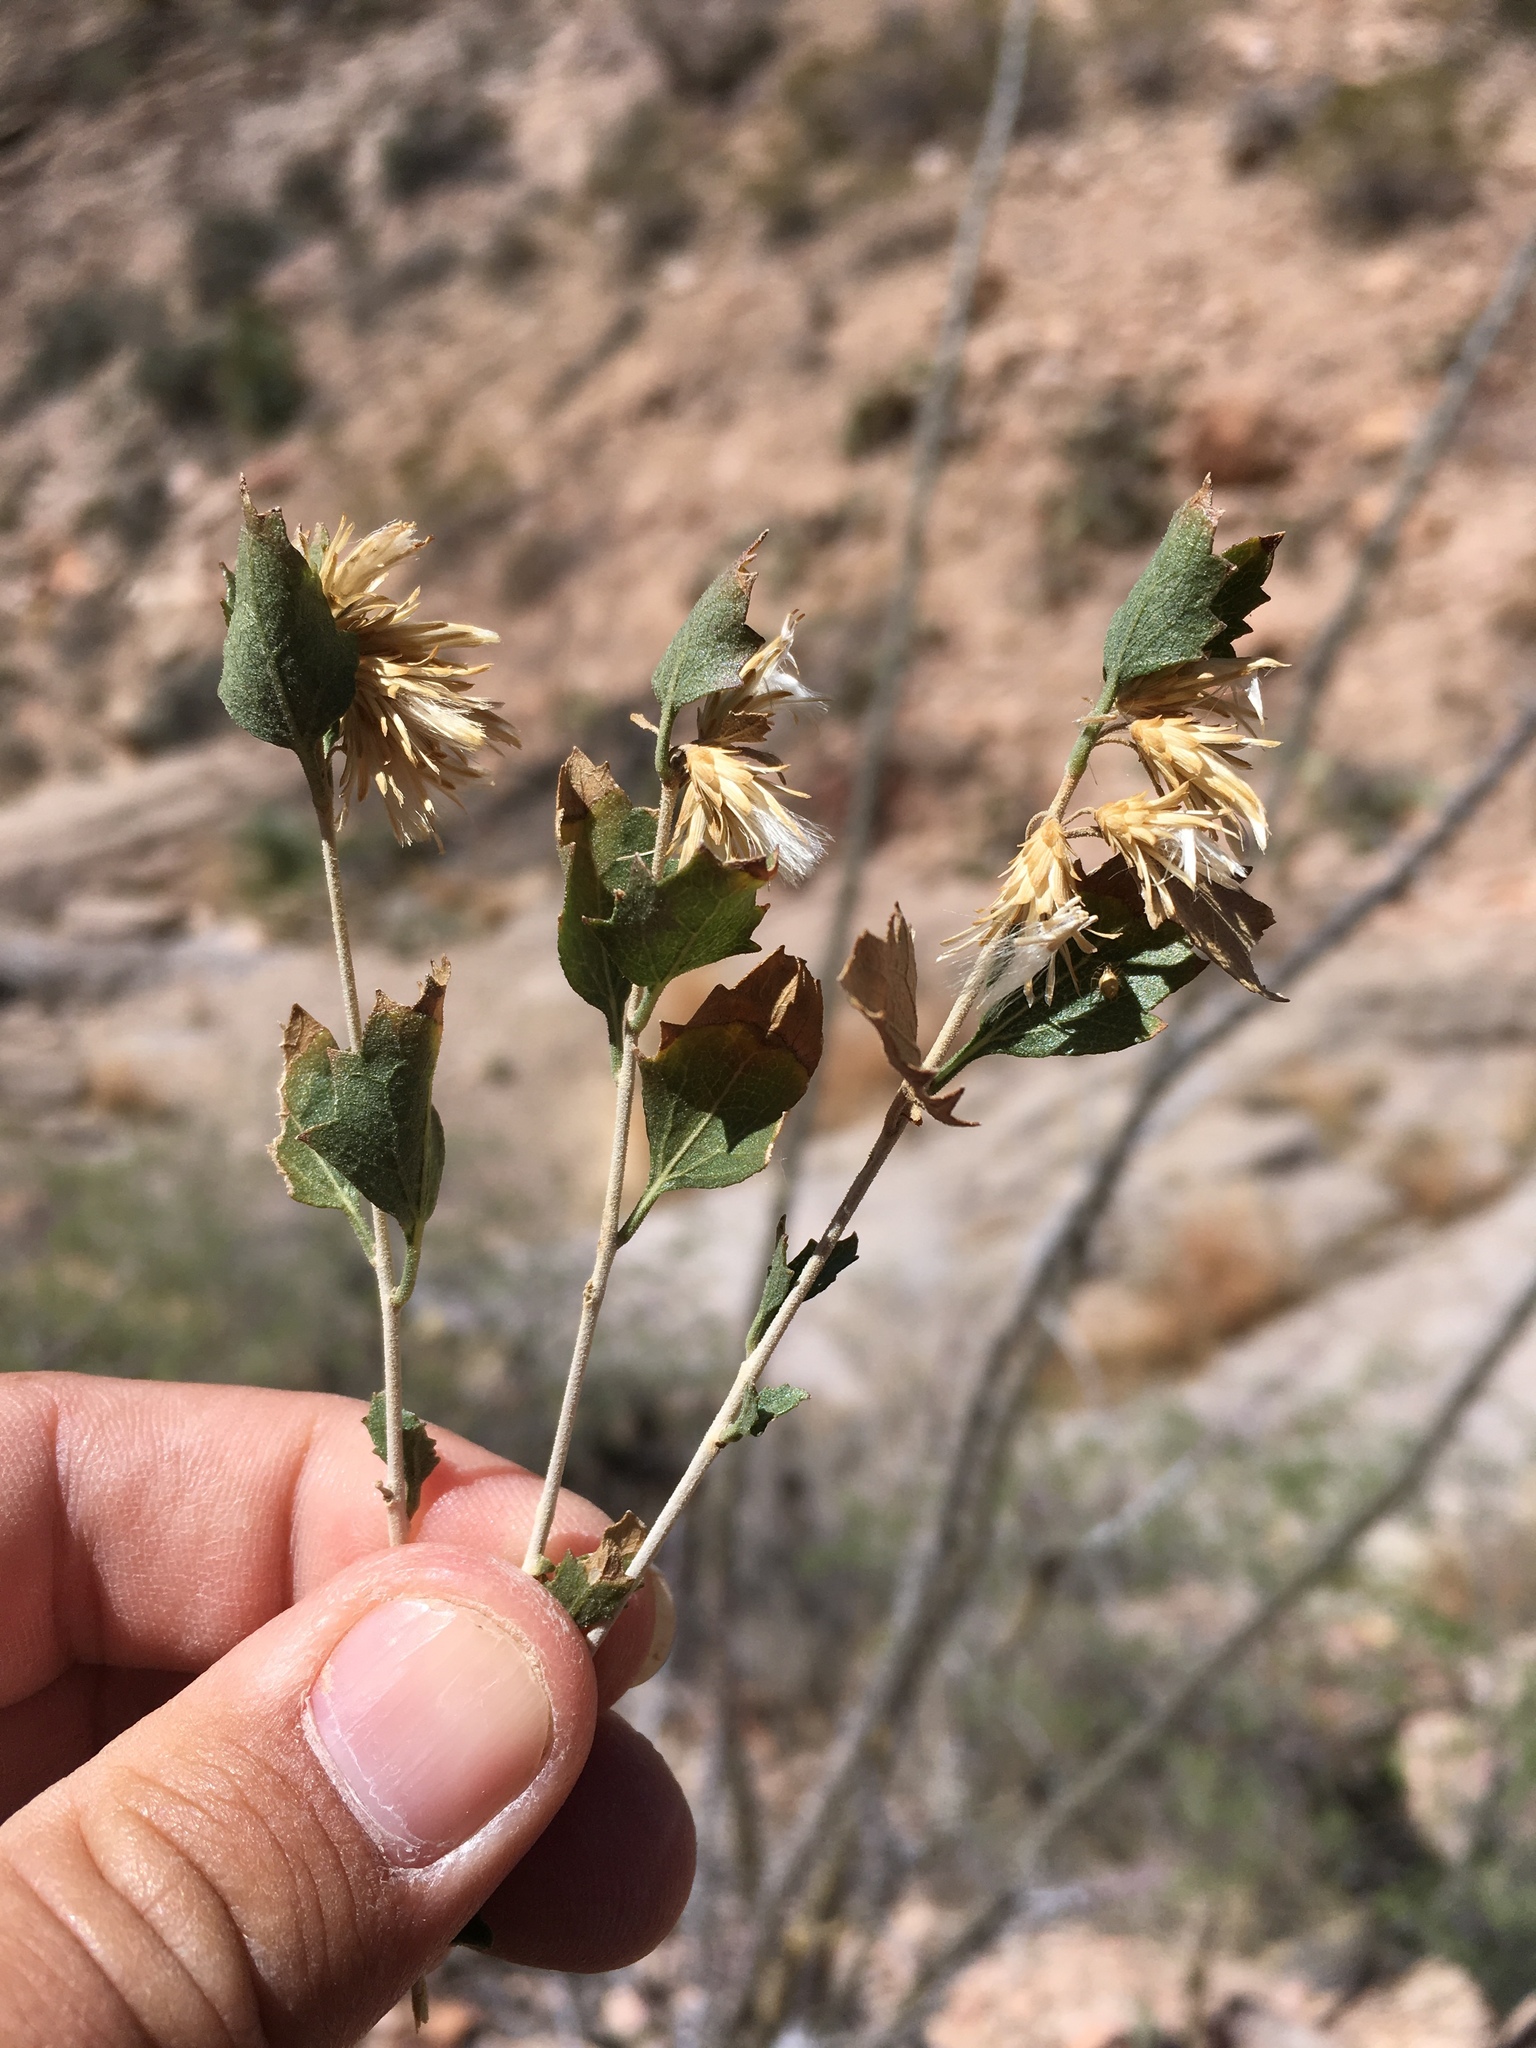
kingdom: Plantae
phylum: Tracheophyta
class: Magnoliopsida
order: Asterales
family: Asteraceae
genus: Brickellia
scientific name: Brickellia baccharidea
